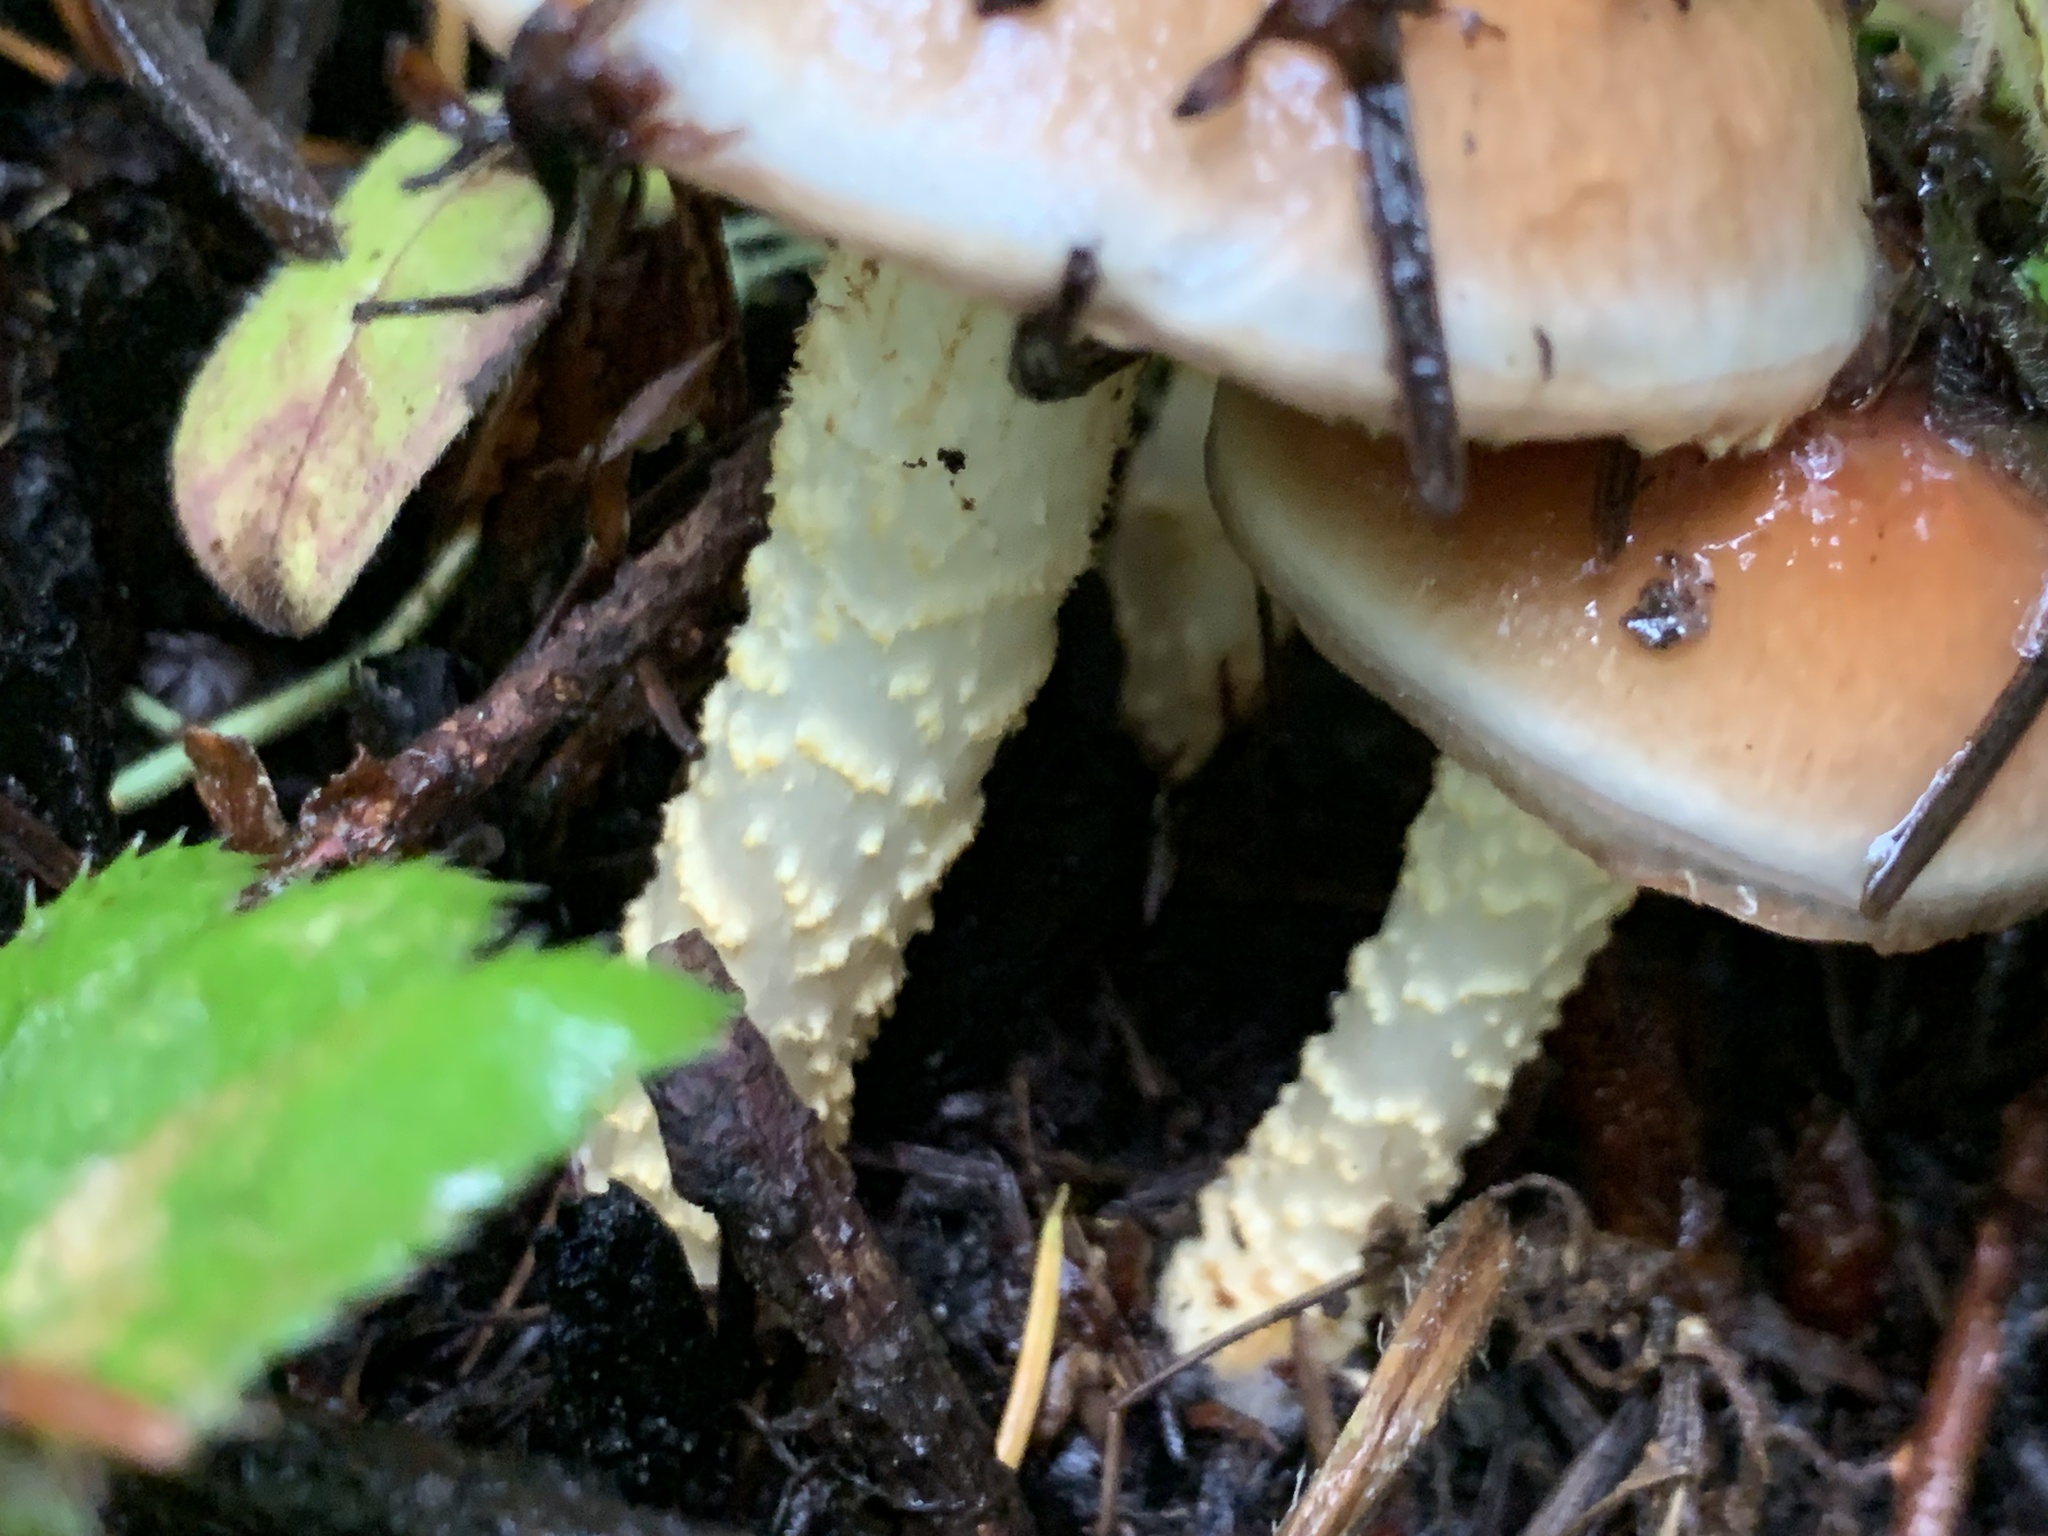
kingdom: Fungi
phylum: Basidiomycota
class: Agaricomycetes
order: Agaricales
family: Strophariaceae
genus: Pholiota
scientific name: Pholiota velaglutinosa
